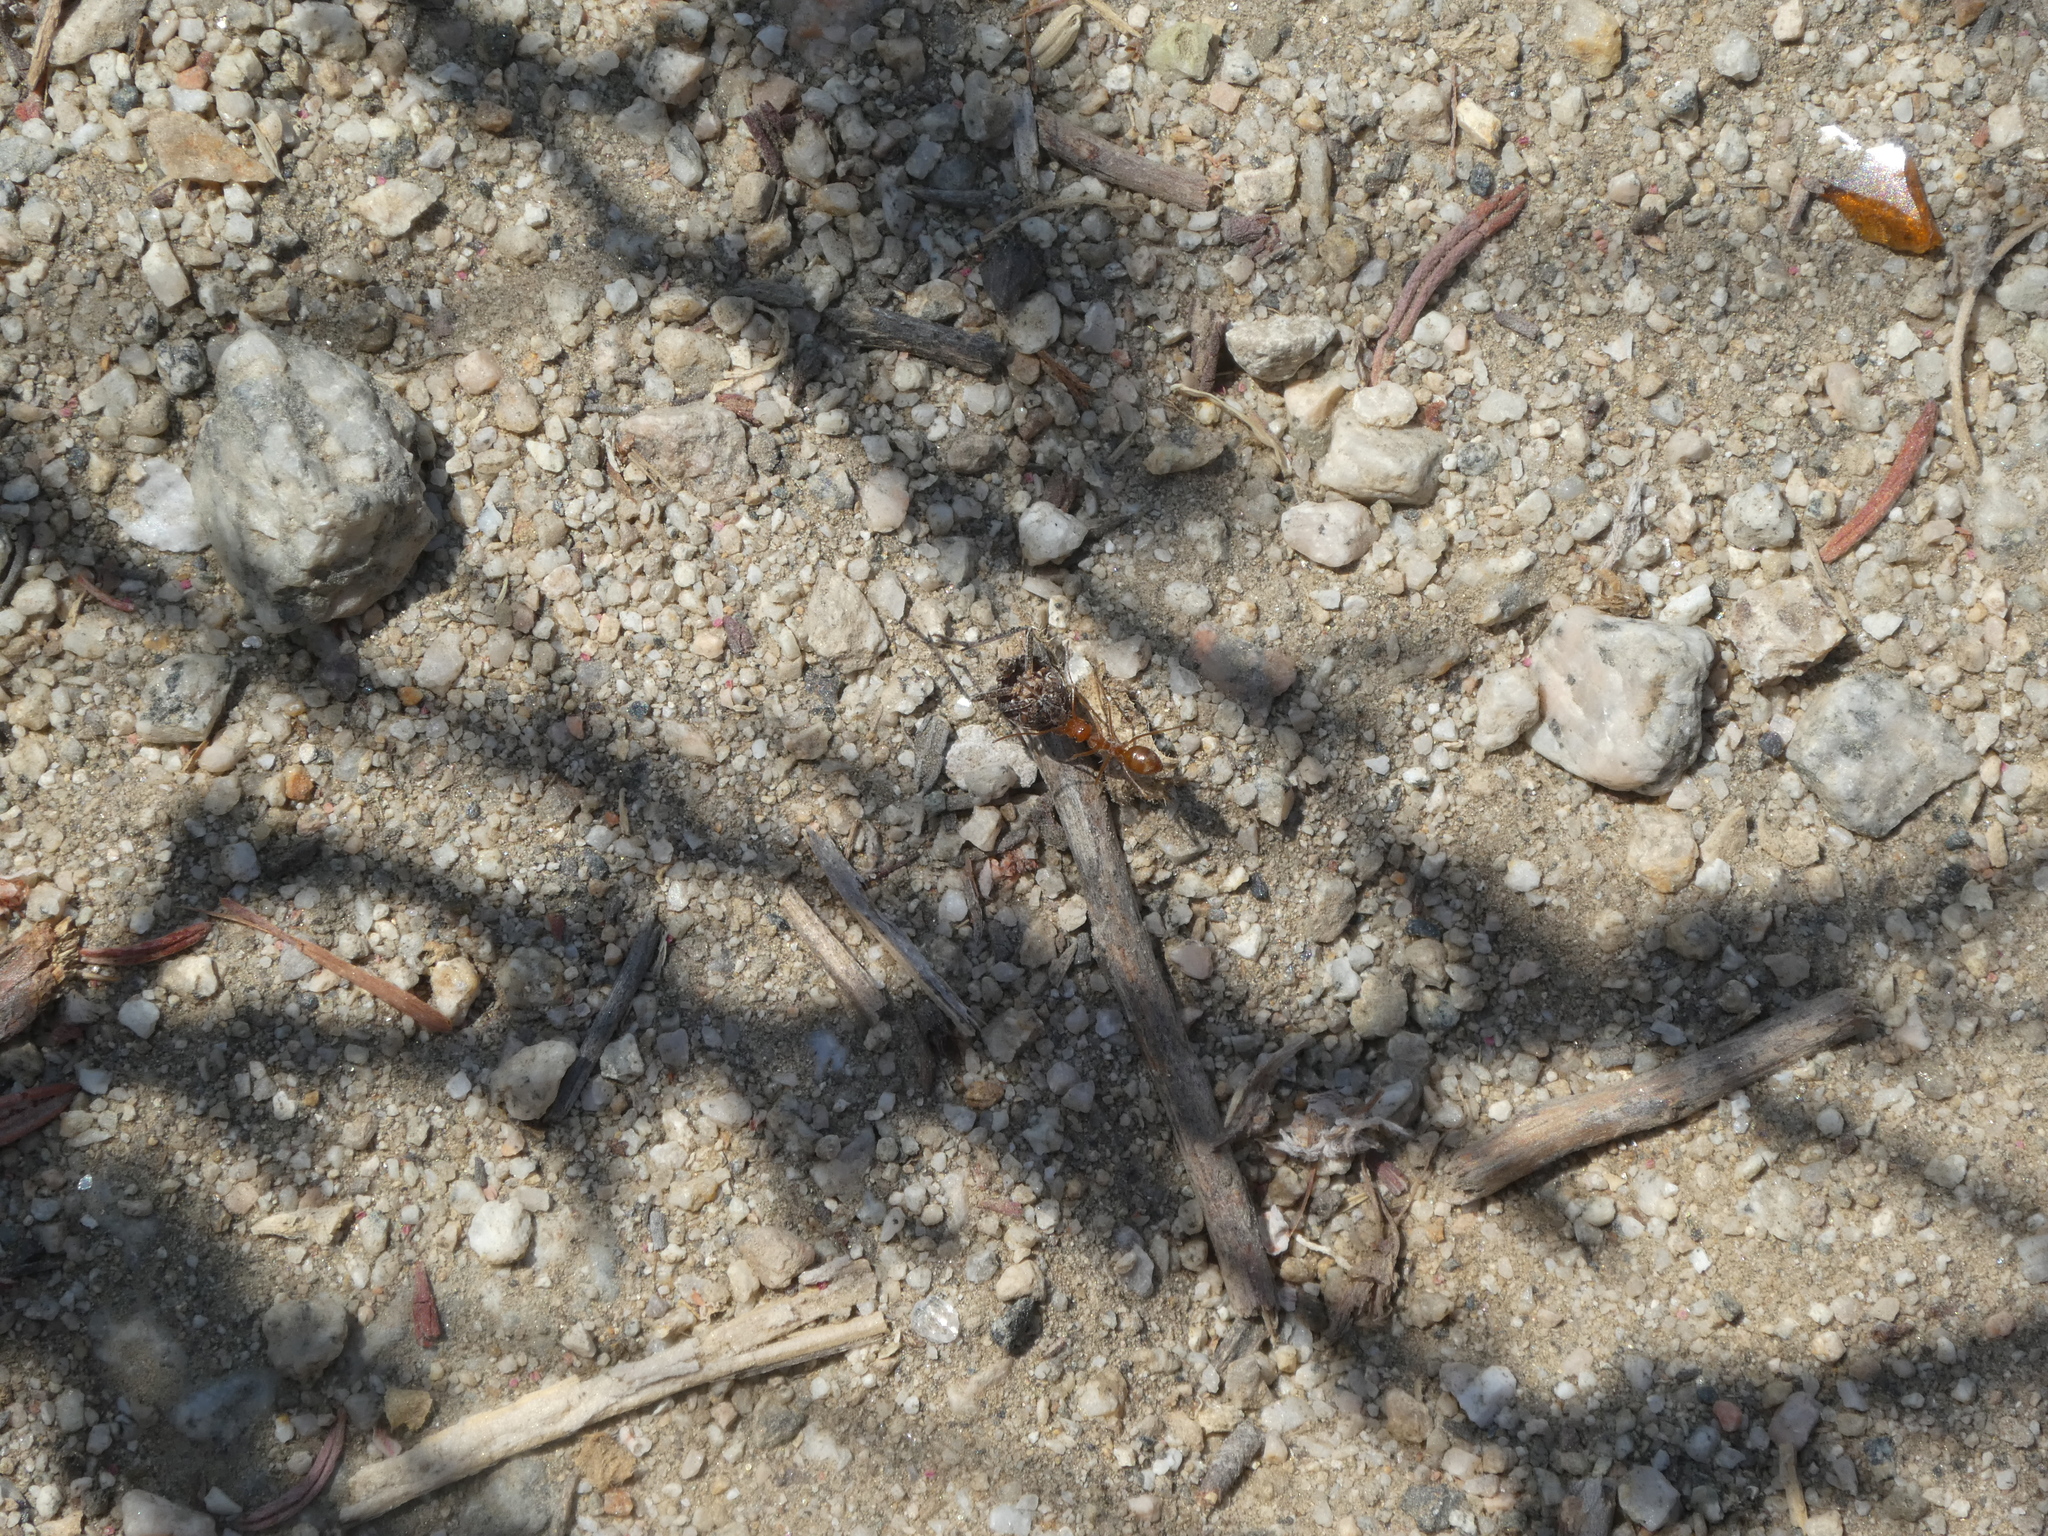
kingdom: Animalia
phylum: Arthropoda
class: Insecta
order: Hymenoptera
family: Formicidae
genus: Myrmecocystus
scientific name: Myrmecocystus wheeleri
